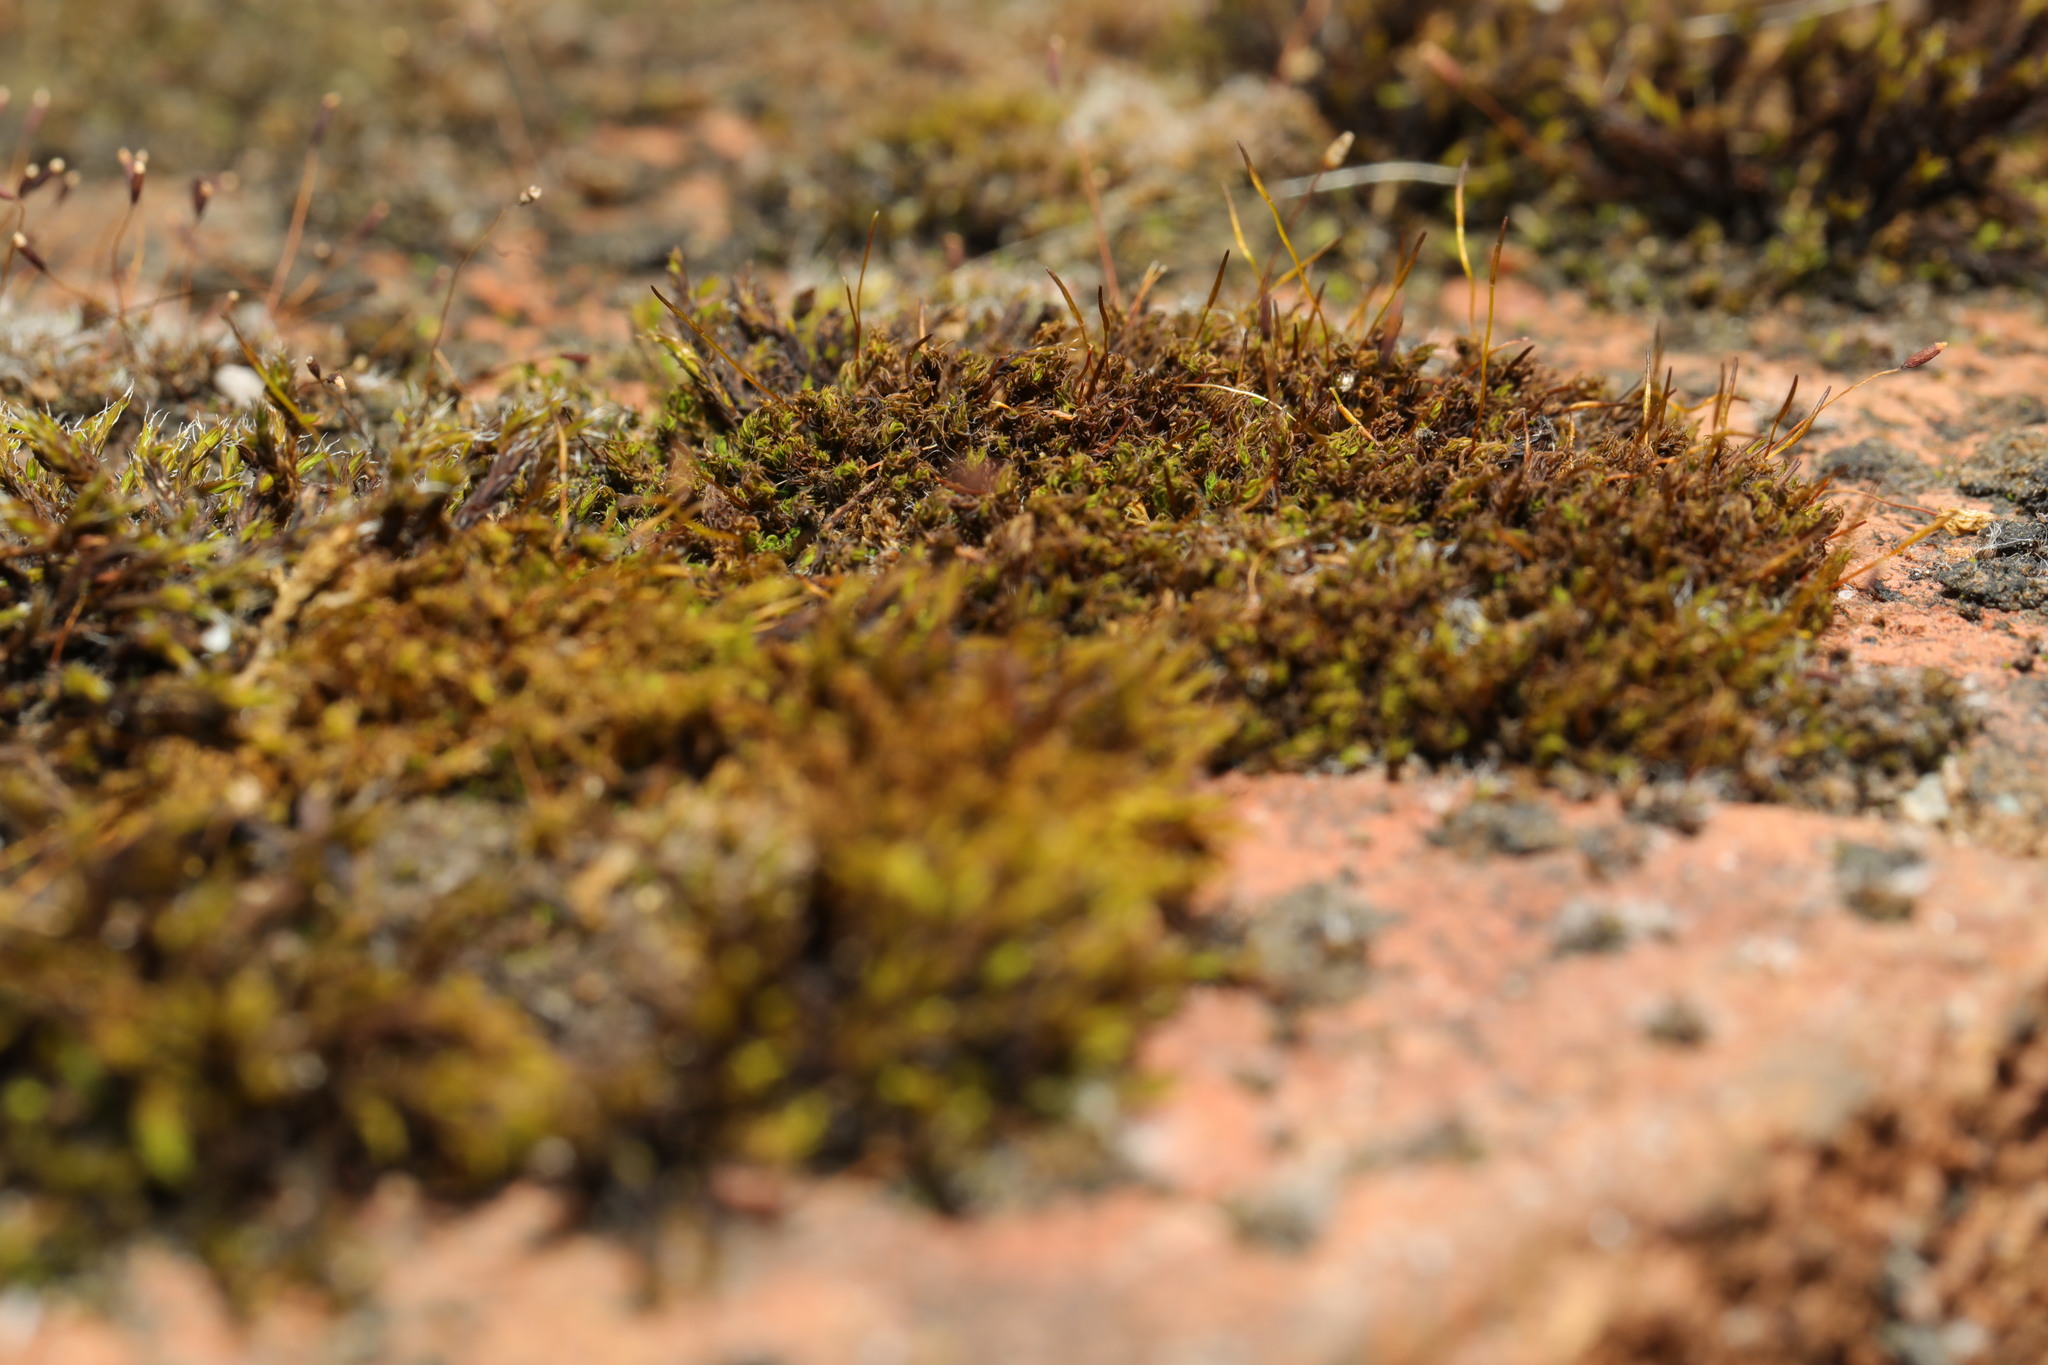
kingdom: Plantae
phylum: Bryophyta
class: Bryopsida
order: Pottiales
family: Pottiaceae
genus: Tortula
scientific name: Tortula muralis
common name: Wall screw-moss
